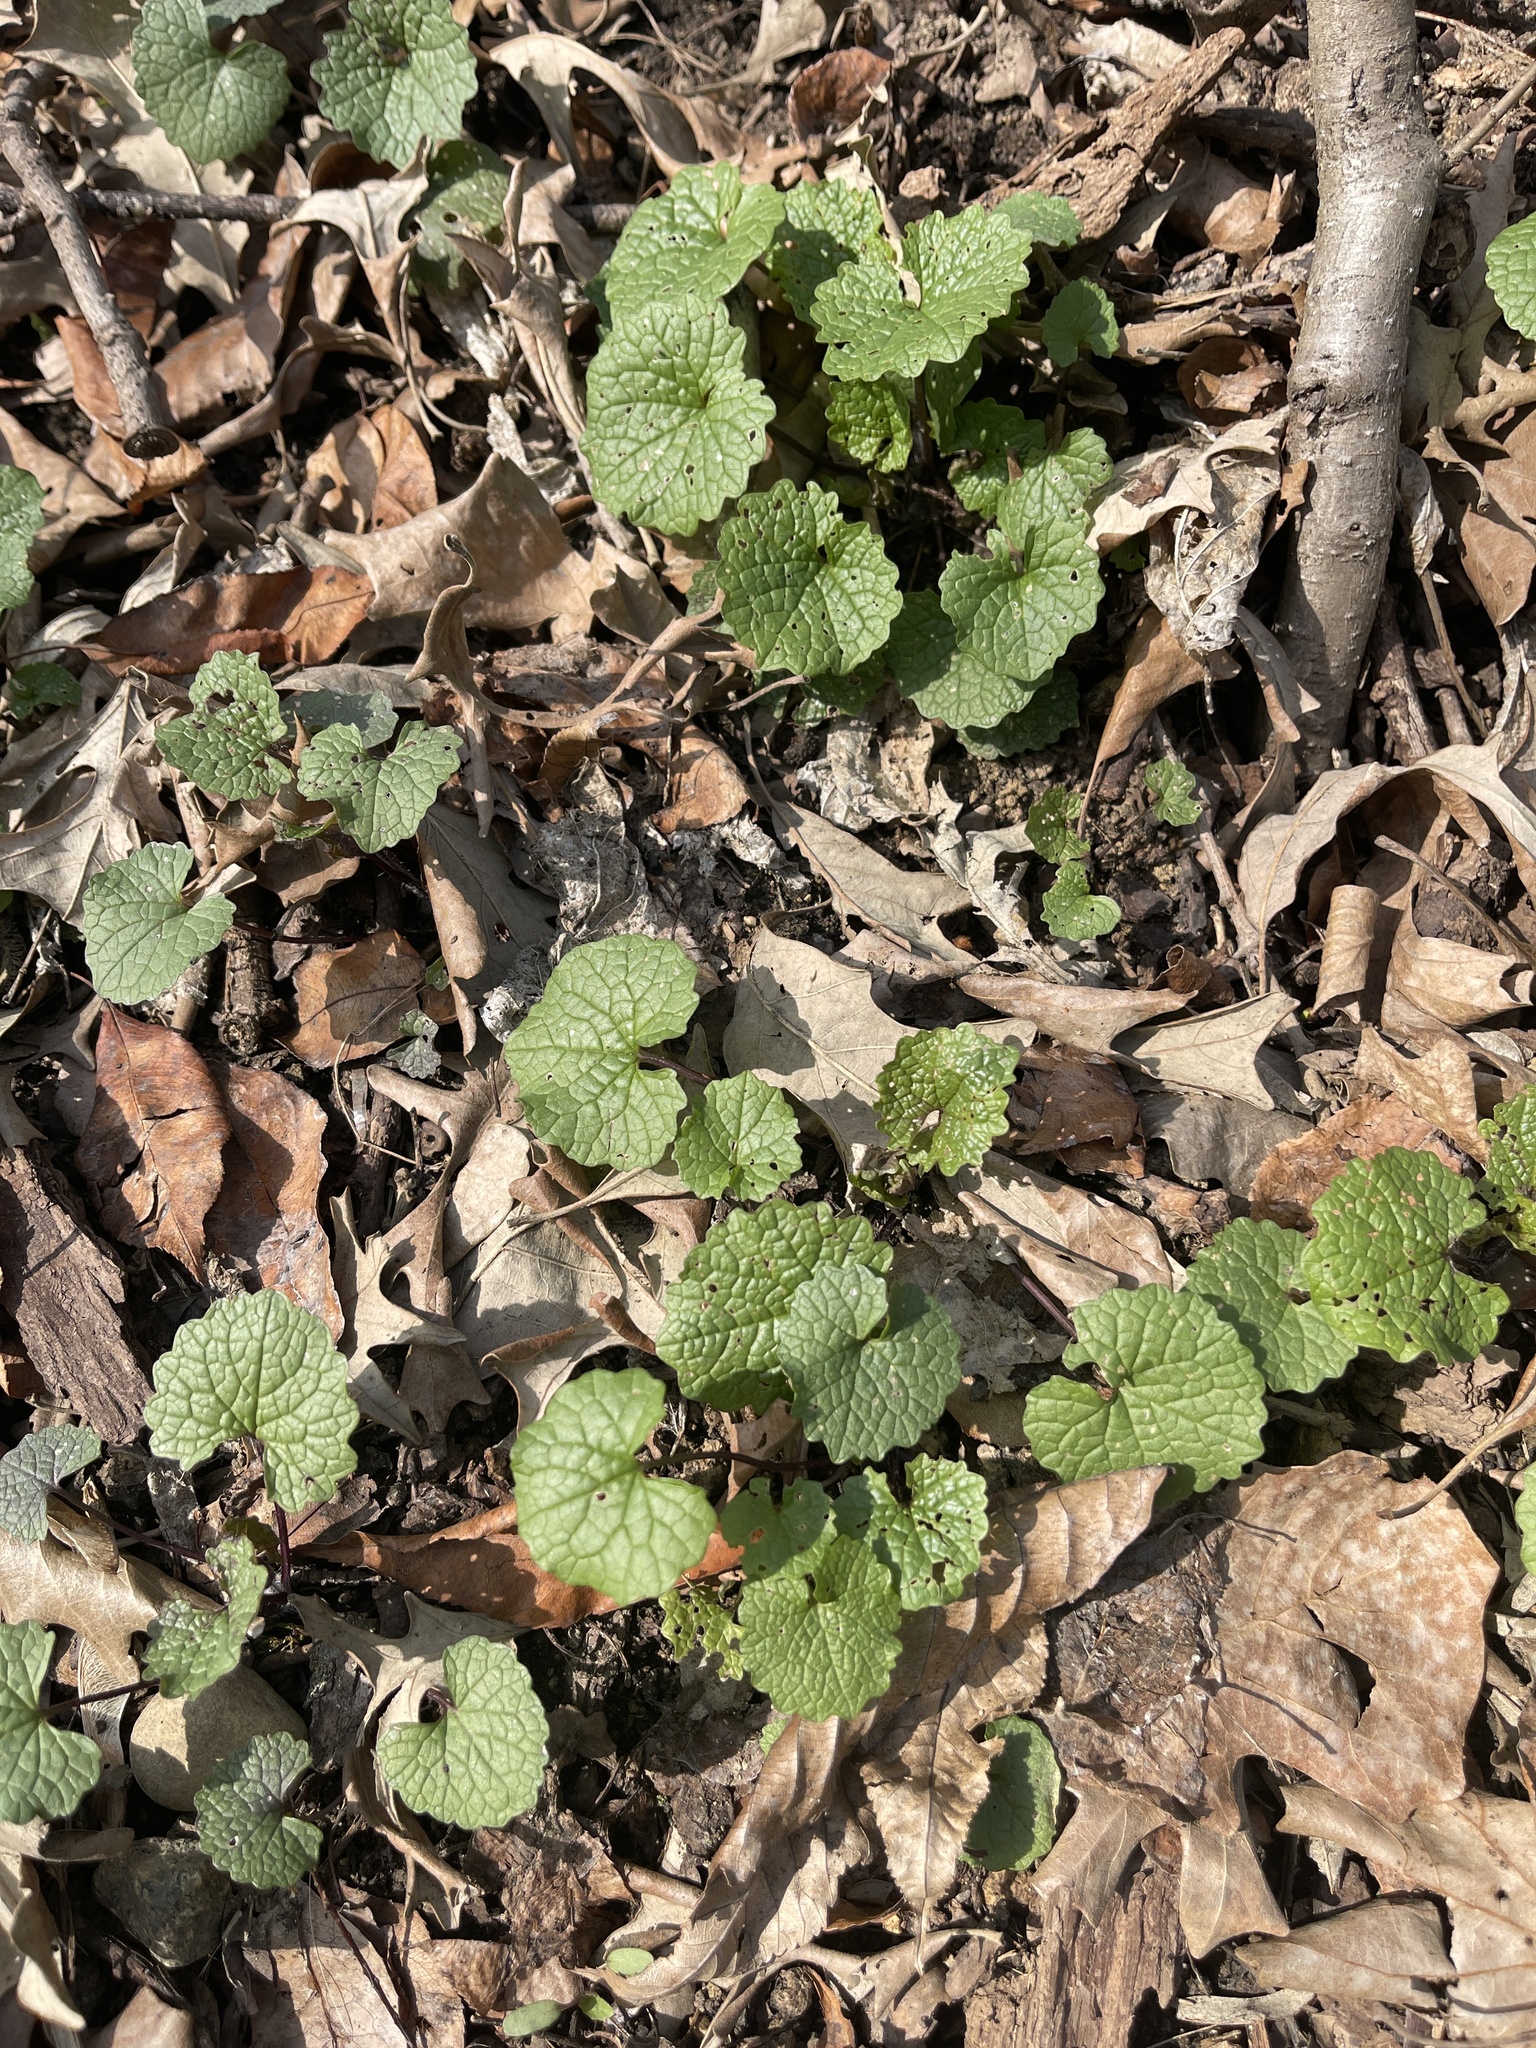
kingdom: Plantae
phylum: Tracheophyta
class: Magnoliopsida
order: Brassicales
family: Brassicaceae
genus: Alliaria
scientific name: Alliaria petiolata
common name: Garlic mustard
